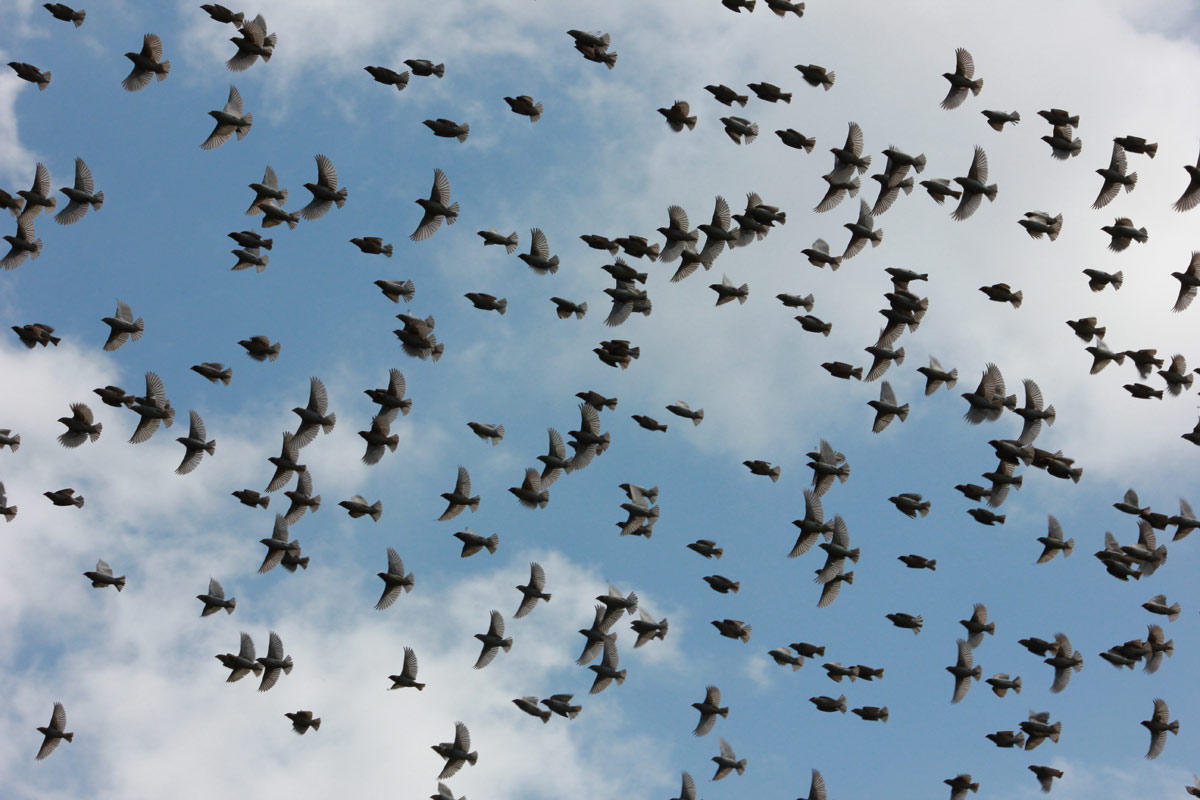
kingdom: Animalia
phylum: Chordata
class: Aves
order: Passeriformes
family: Ploceidae
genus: Quelea
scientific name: Quelea quelea
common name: Red-billed quelea
